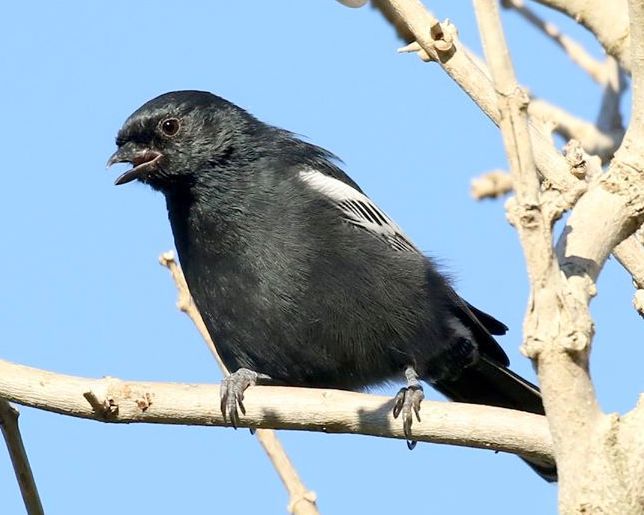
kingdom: Animalia
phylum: Chordata
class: Aves
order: Passeriformes
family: Paridae
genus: Parus
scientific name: Parus niger
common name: Southern black tit
